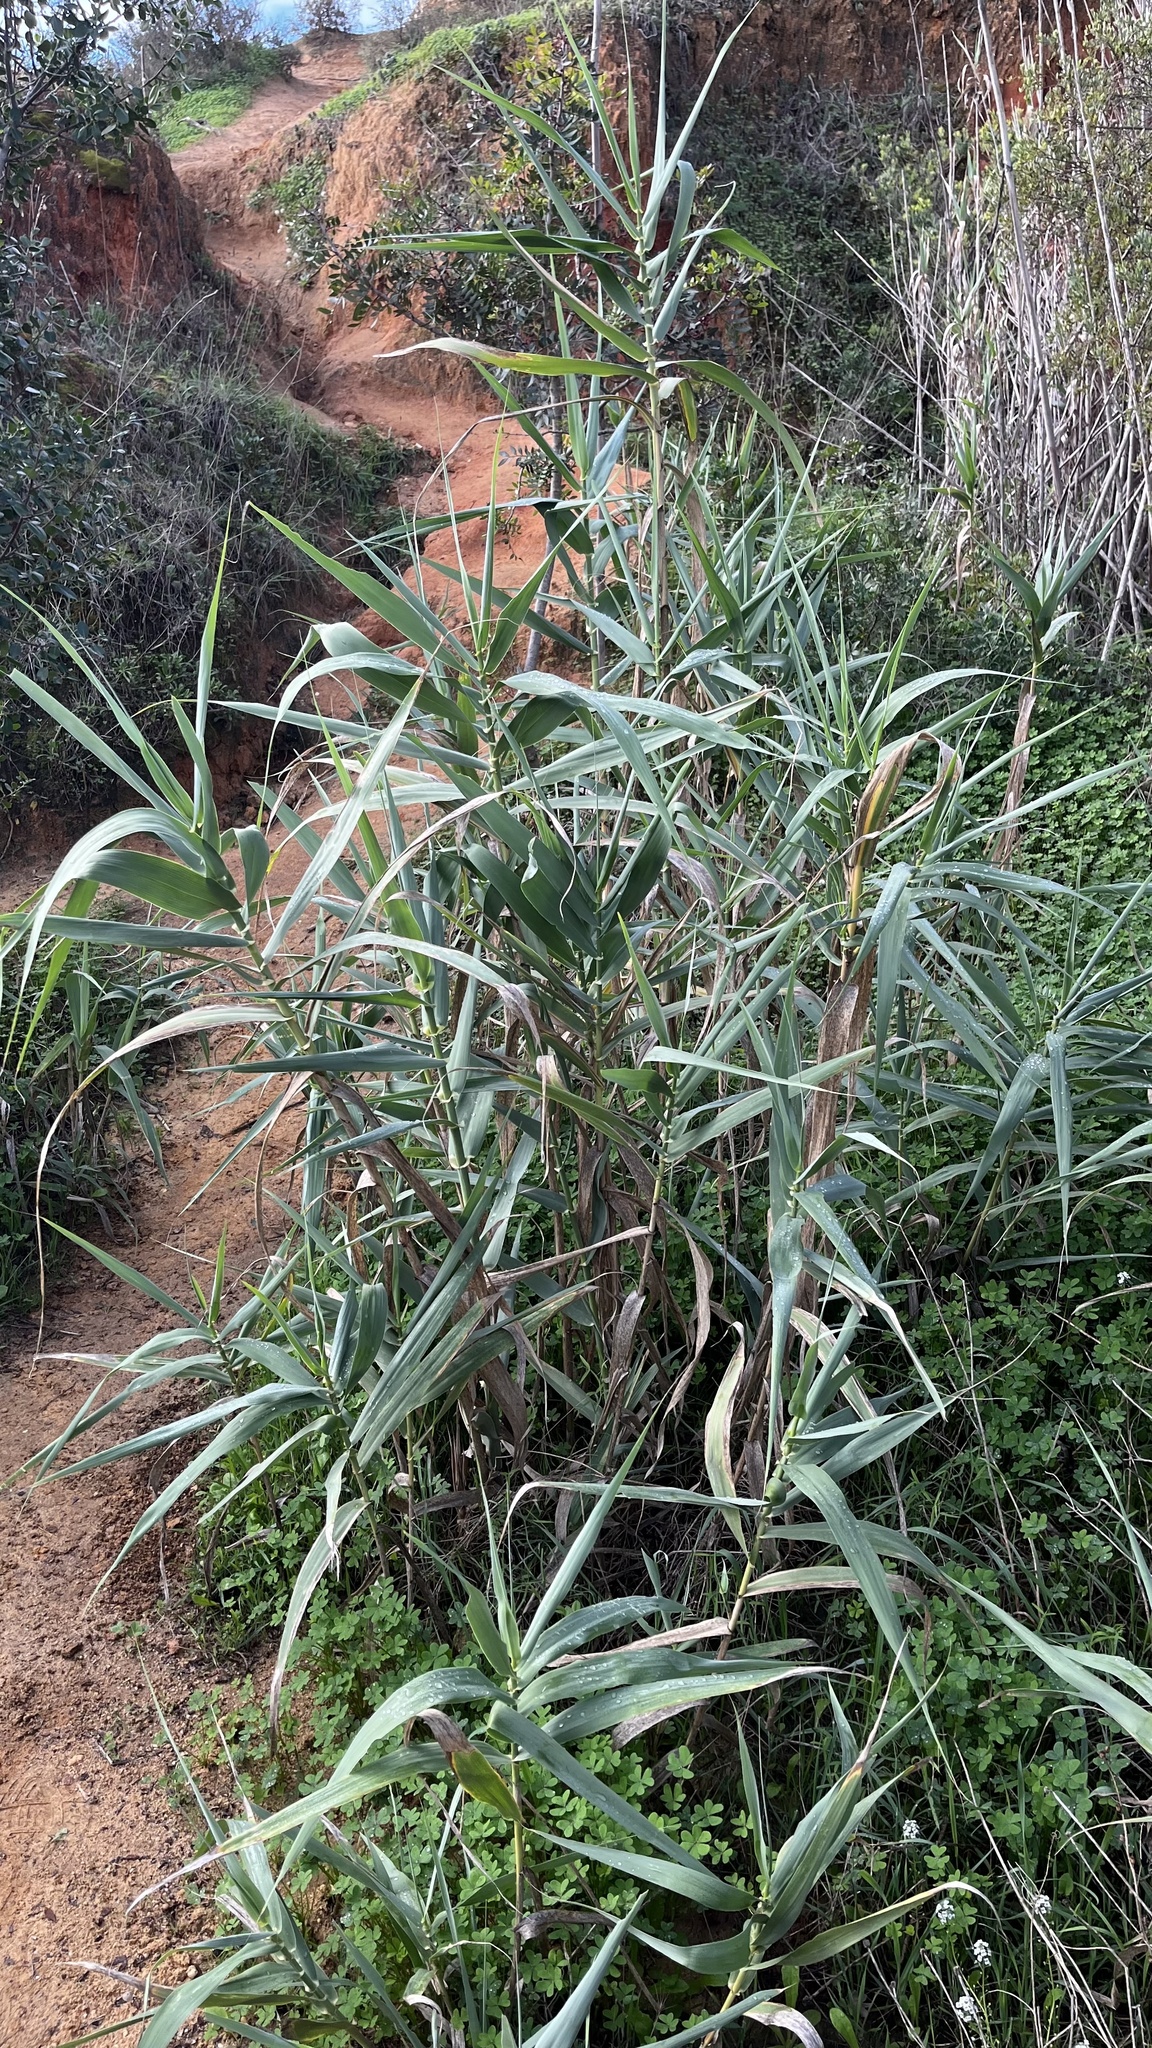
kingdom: Plantae
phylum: Tracheophyta
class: Liliopsida
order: Poales
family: Poaceae
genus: Arundo
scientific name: Arundo donax
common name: Giant reed
